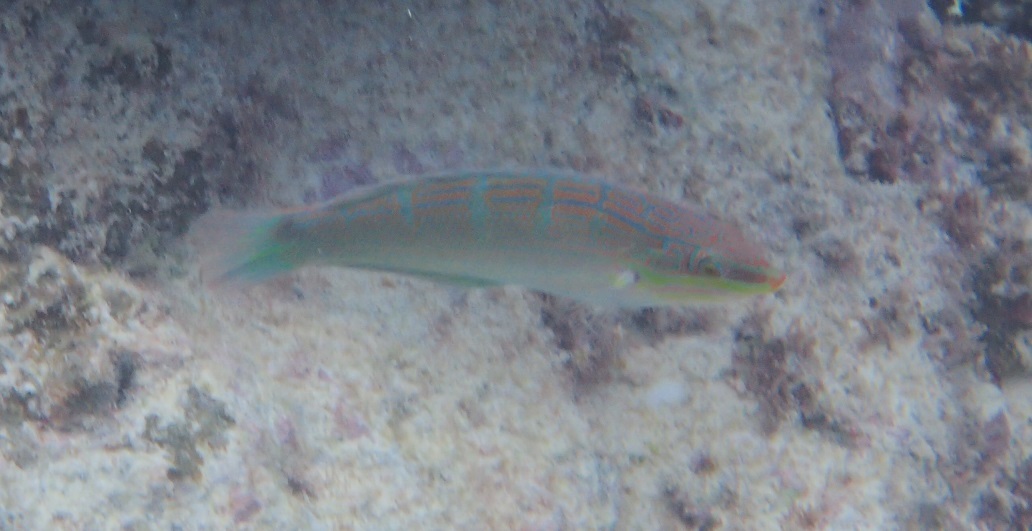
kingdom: Animalia
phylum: Chordata
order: Perciformes
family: Labridae
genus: Coris
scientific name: Coris aurilineata
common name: Goldlined coris
